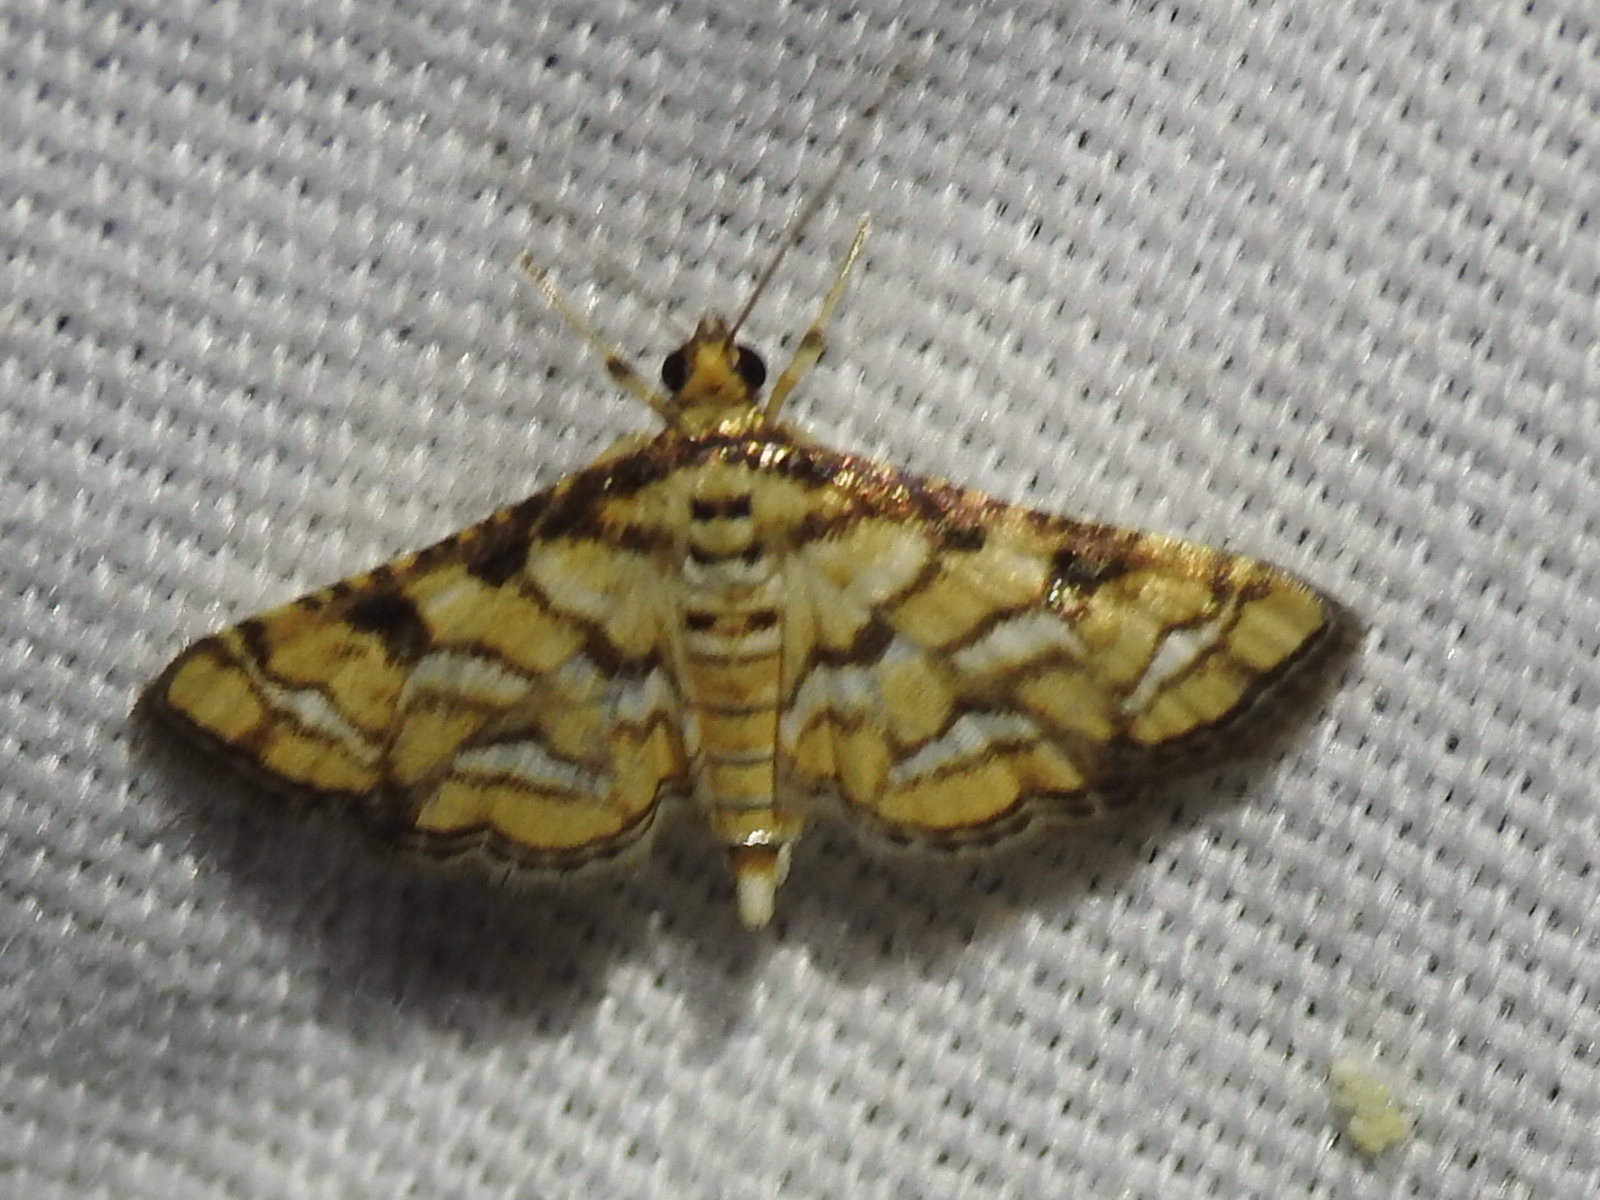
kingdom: Animalia
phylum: Arthropoda
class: Insecta
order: Lepidoptera
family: Crambidae
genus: Hileithia
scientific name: Hileithia magualis
